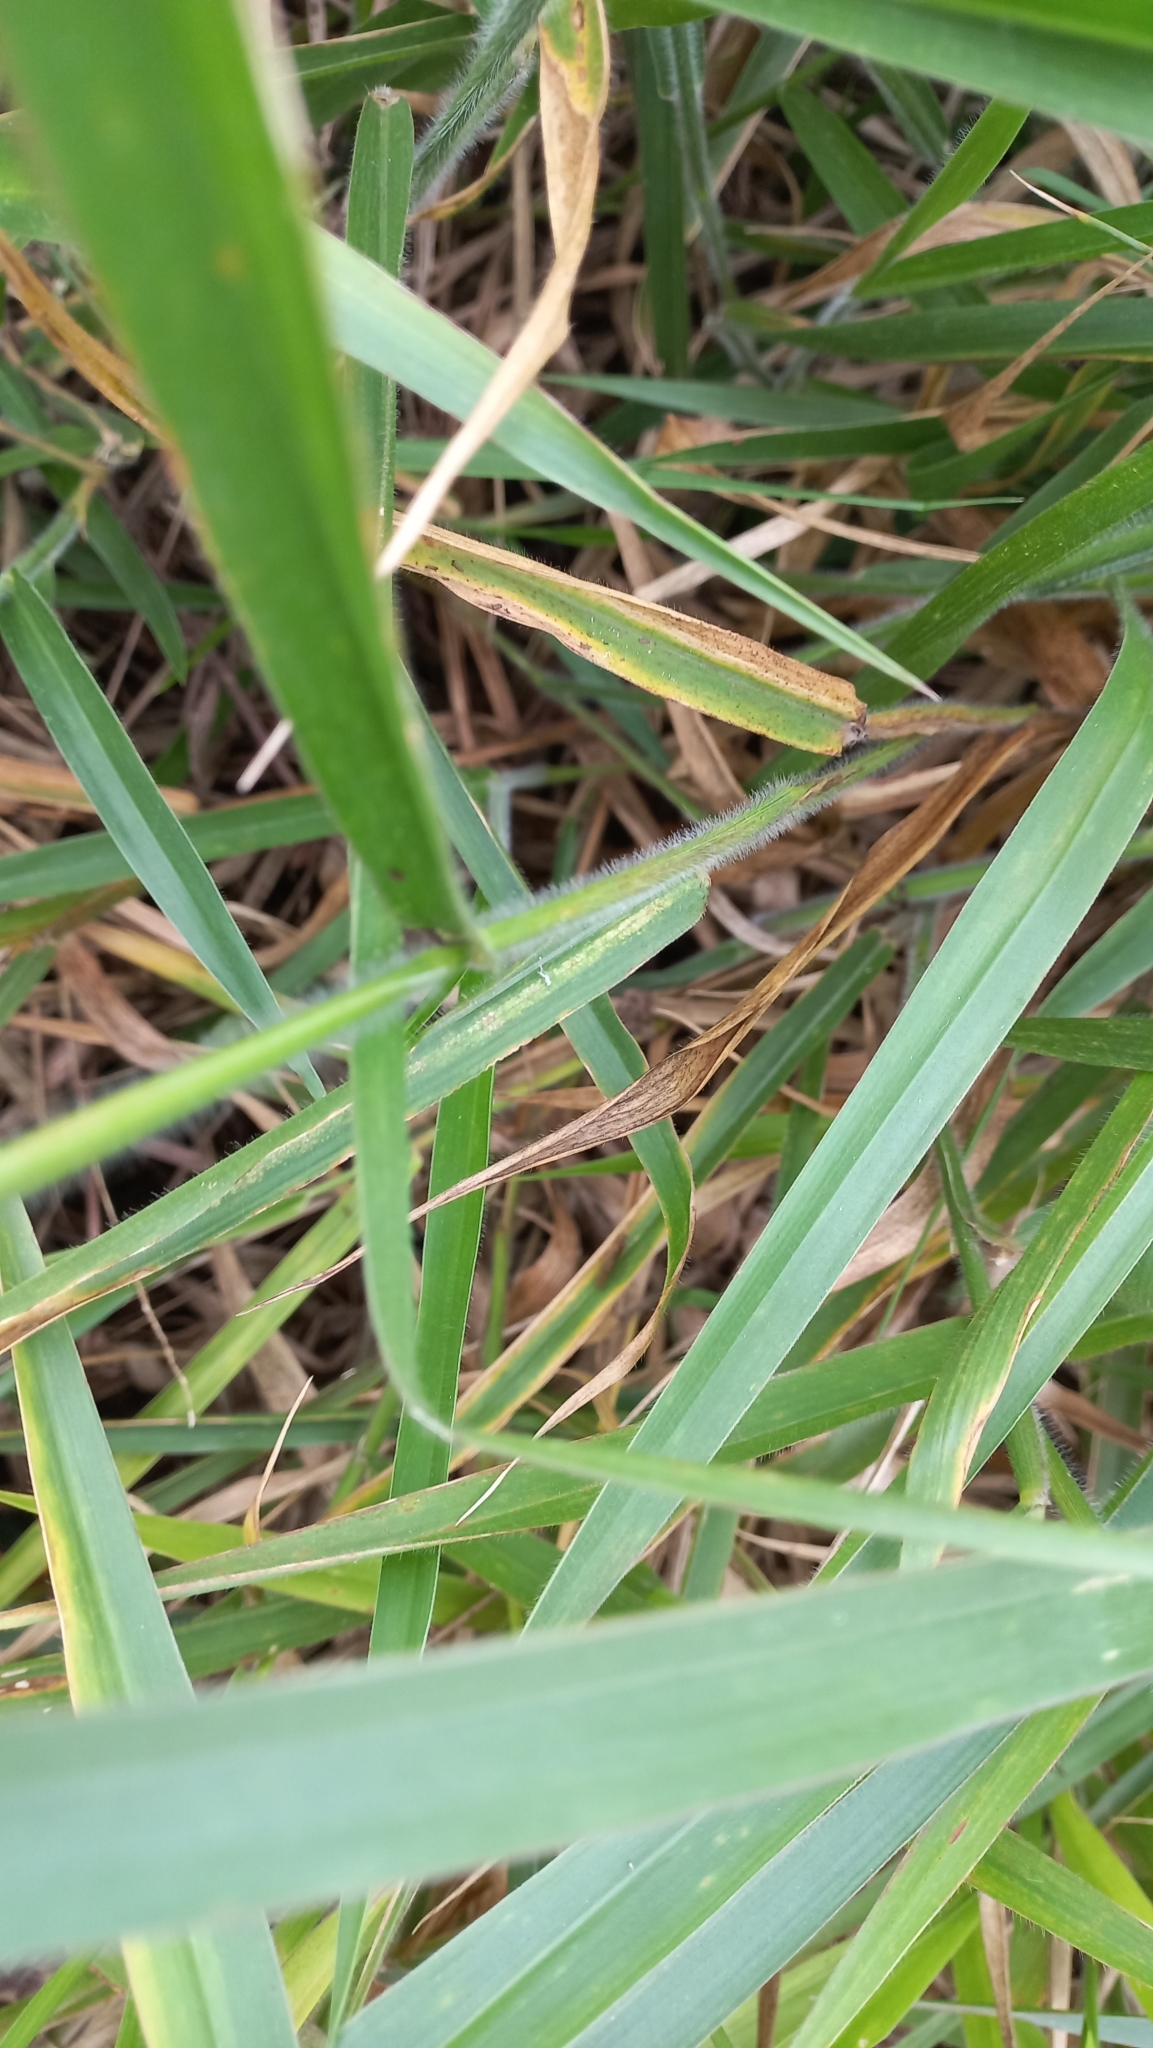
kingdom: Plantae
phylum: Tracheophyta
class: Liliopsida
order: Poales
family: Poaceae
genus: Urochloa
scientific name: Urochloa eminii
